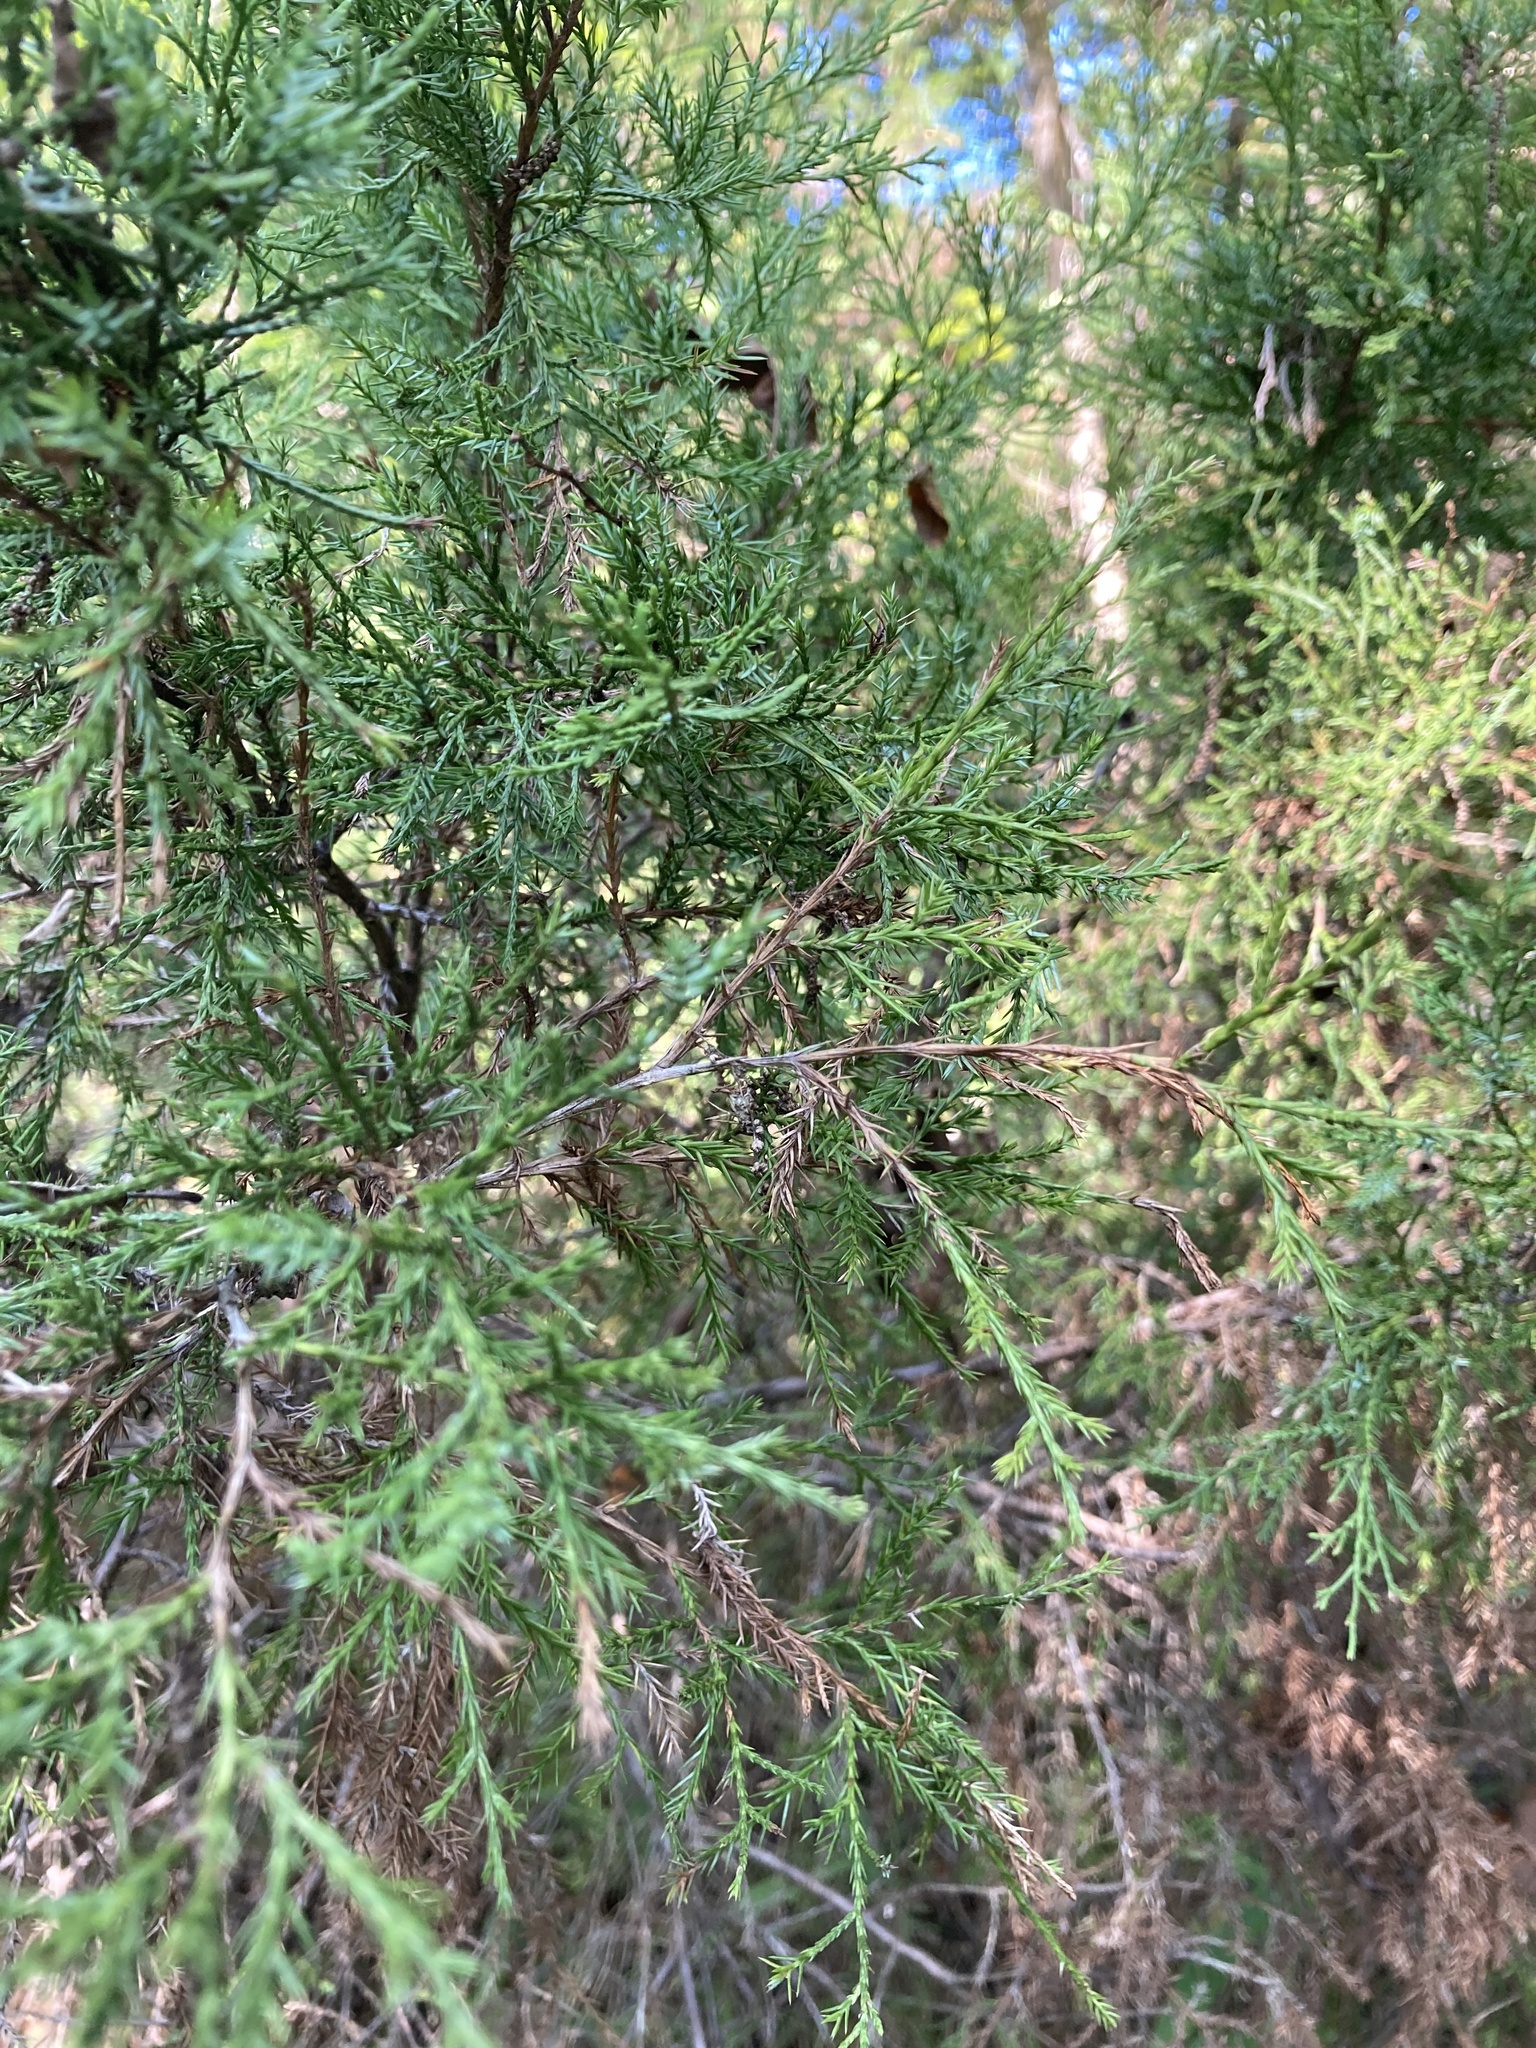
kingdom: Plantae
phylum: Tracheophyta
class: Pinopsida
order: Pinales
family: Cupressaceae
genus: Juniperus
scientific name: Juniperus virginiana
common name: Red juniper
